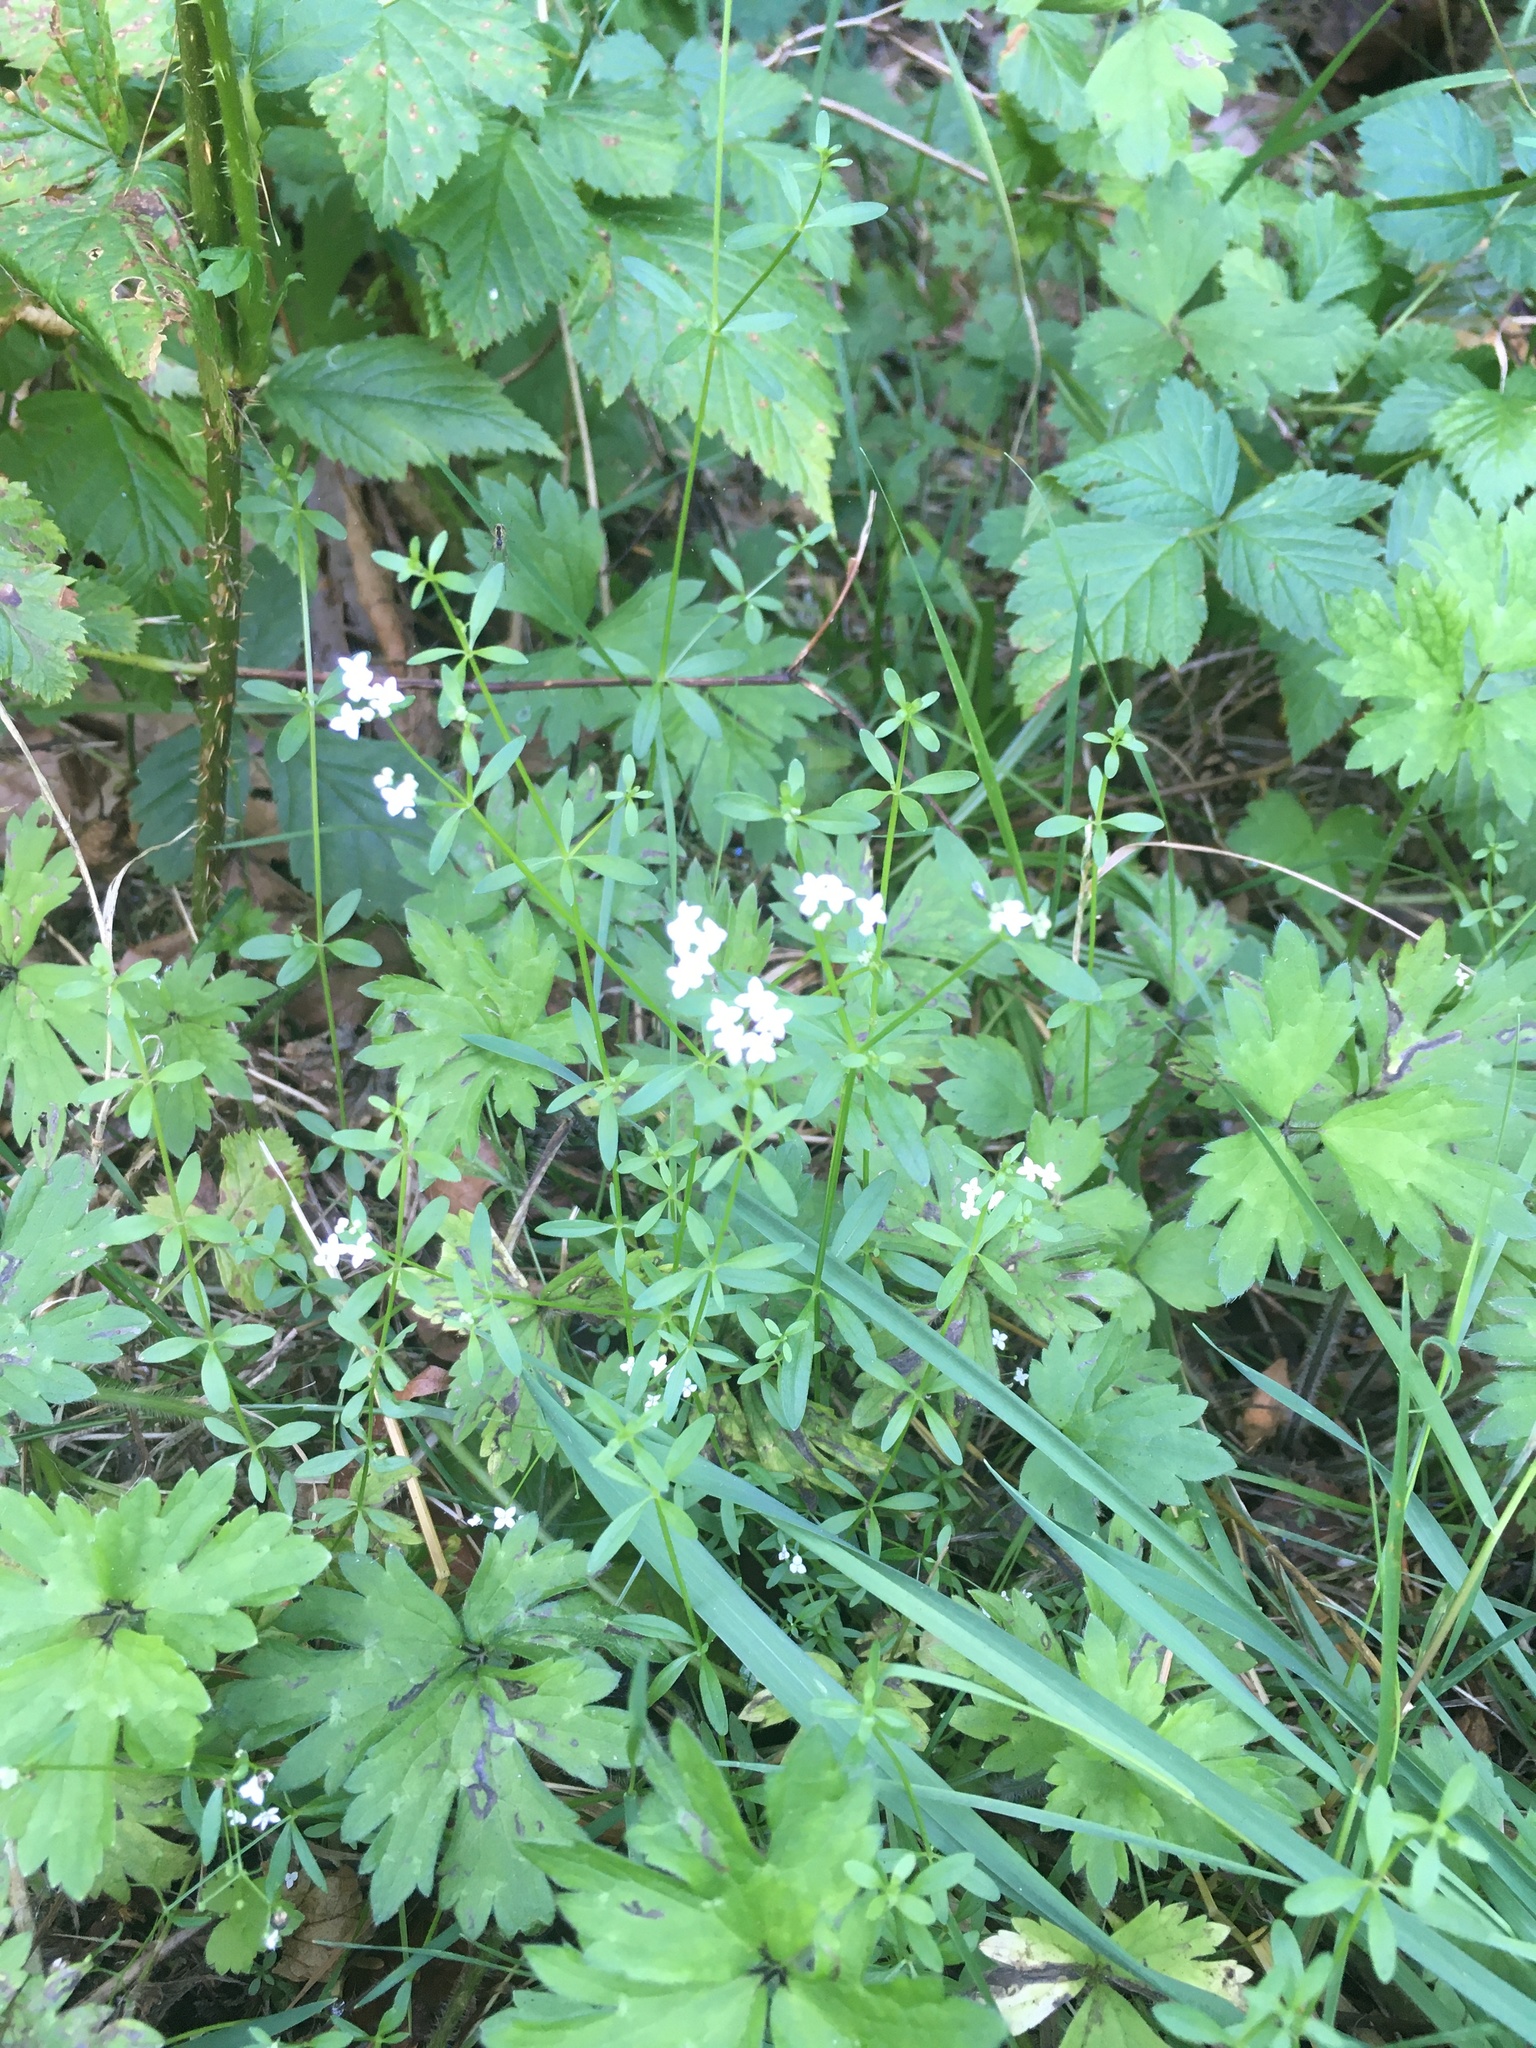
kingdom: Plantae
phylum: Tracheophyta
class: Magnoliopsida
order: Gentianales
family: Rubiaceae
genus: Galium
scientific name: Galium palustre
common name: Common marsh-bedstraw
